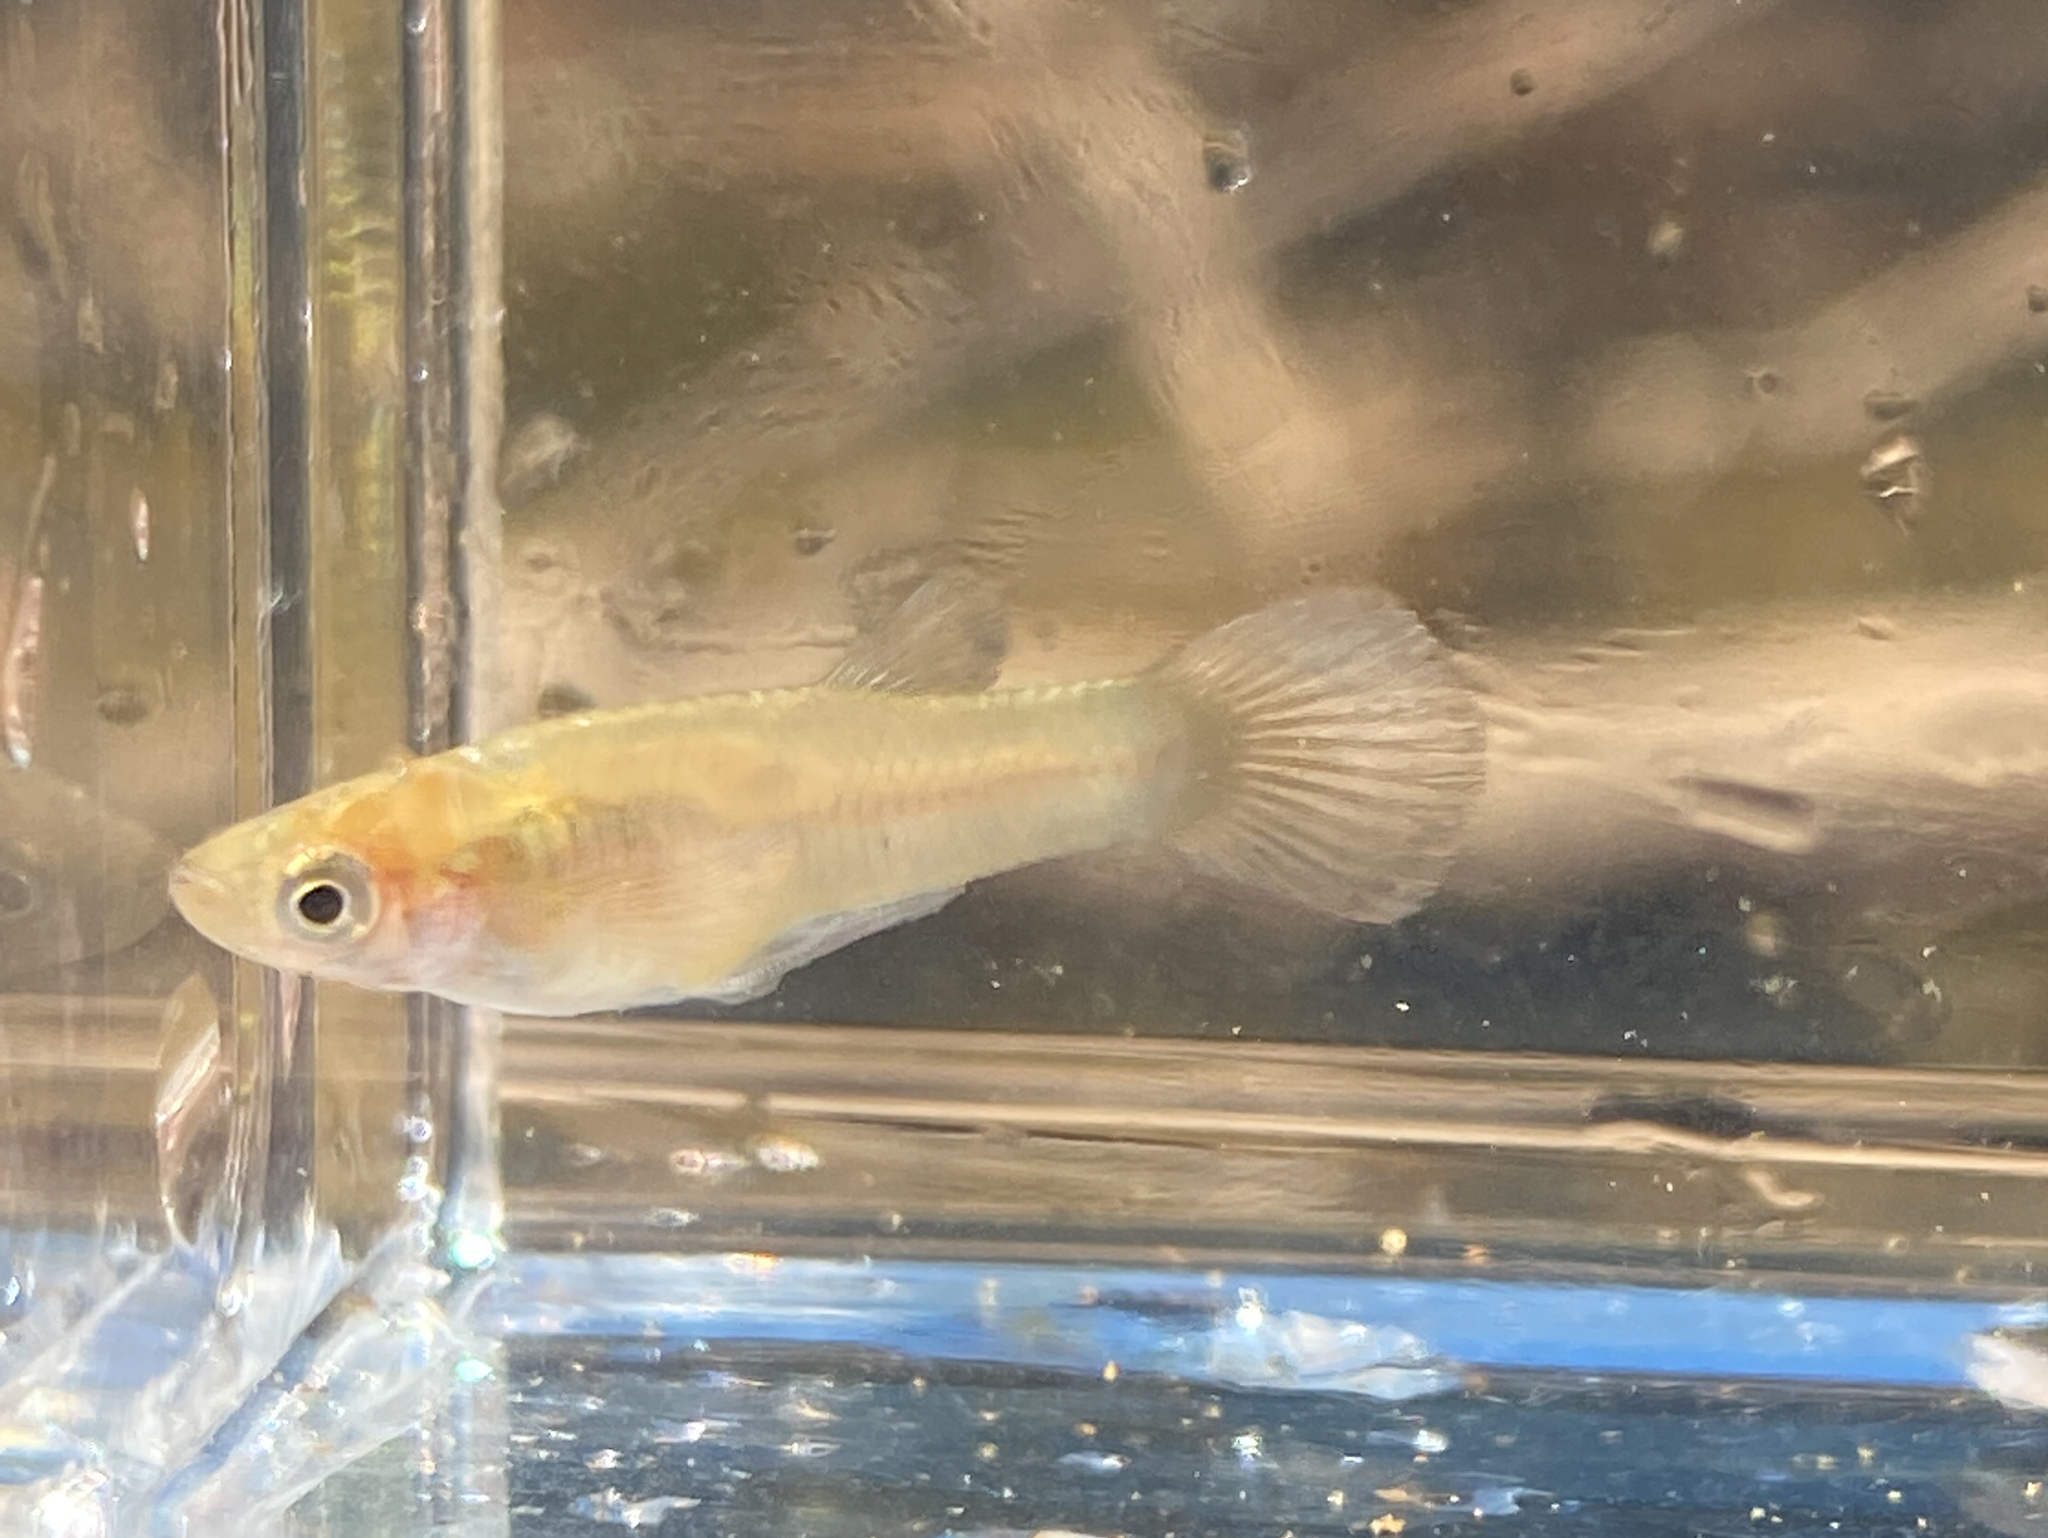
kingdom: Animalia
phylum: Chordata
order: Cyprinodontiformes
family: Poeciliidae
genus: Gambusia
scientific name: Gambusia holbrooki
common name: Eastern mosquitofish
